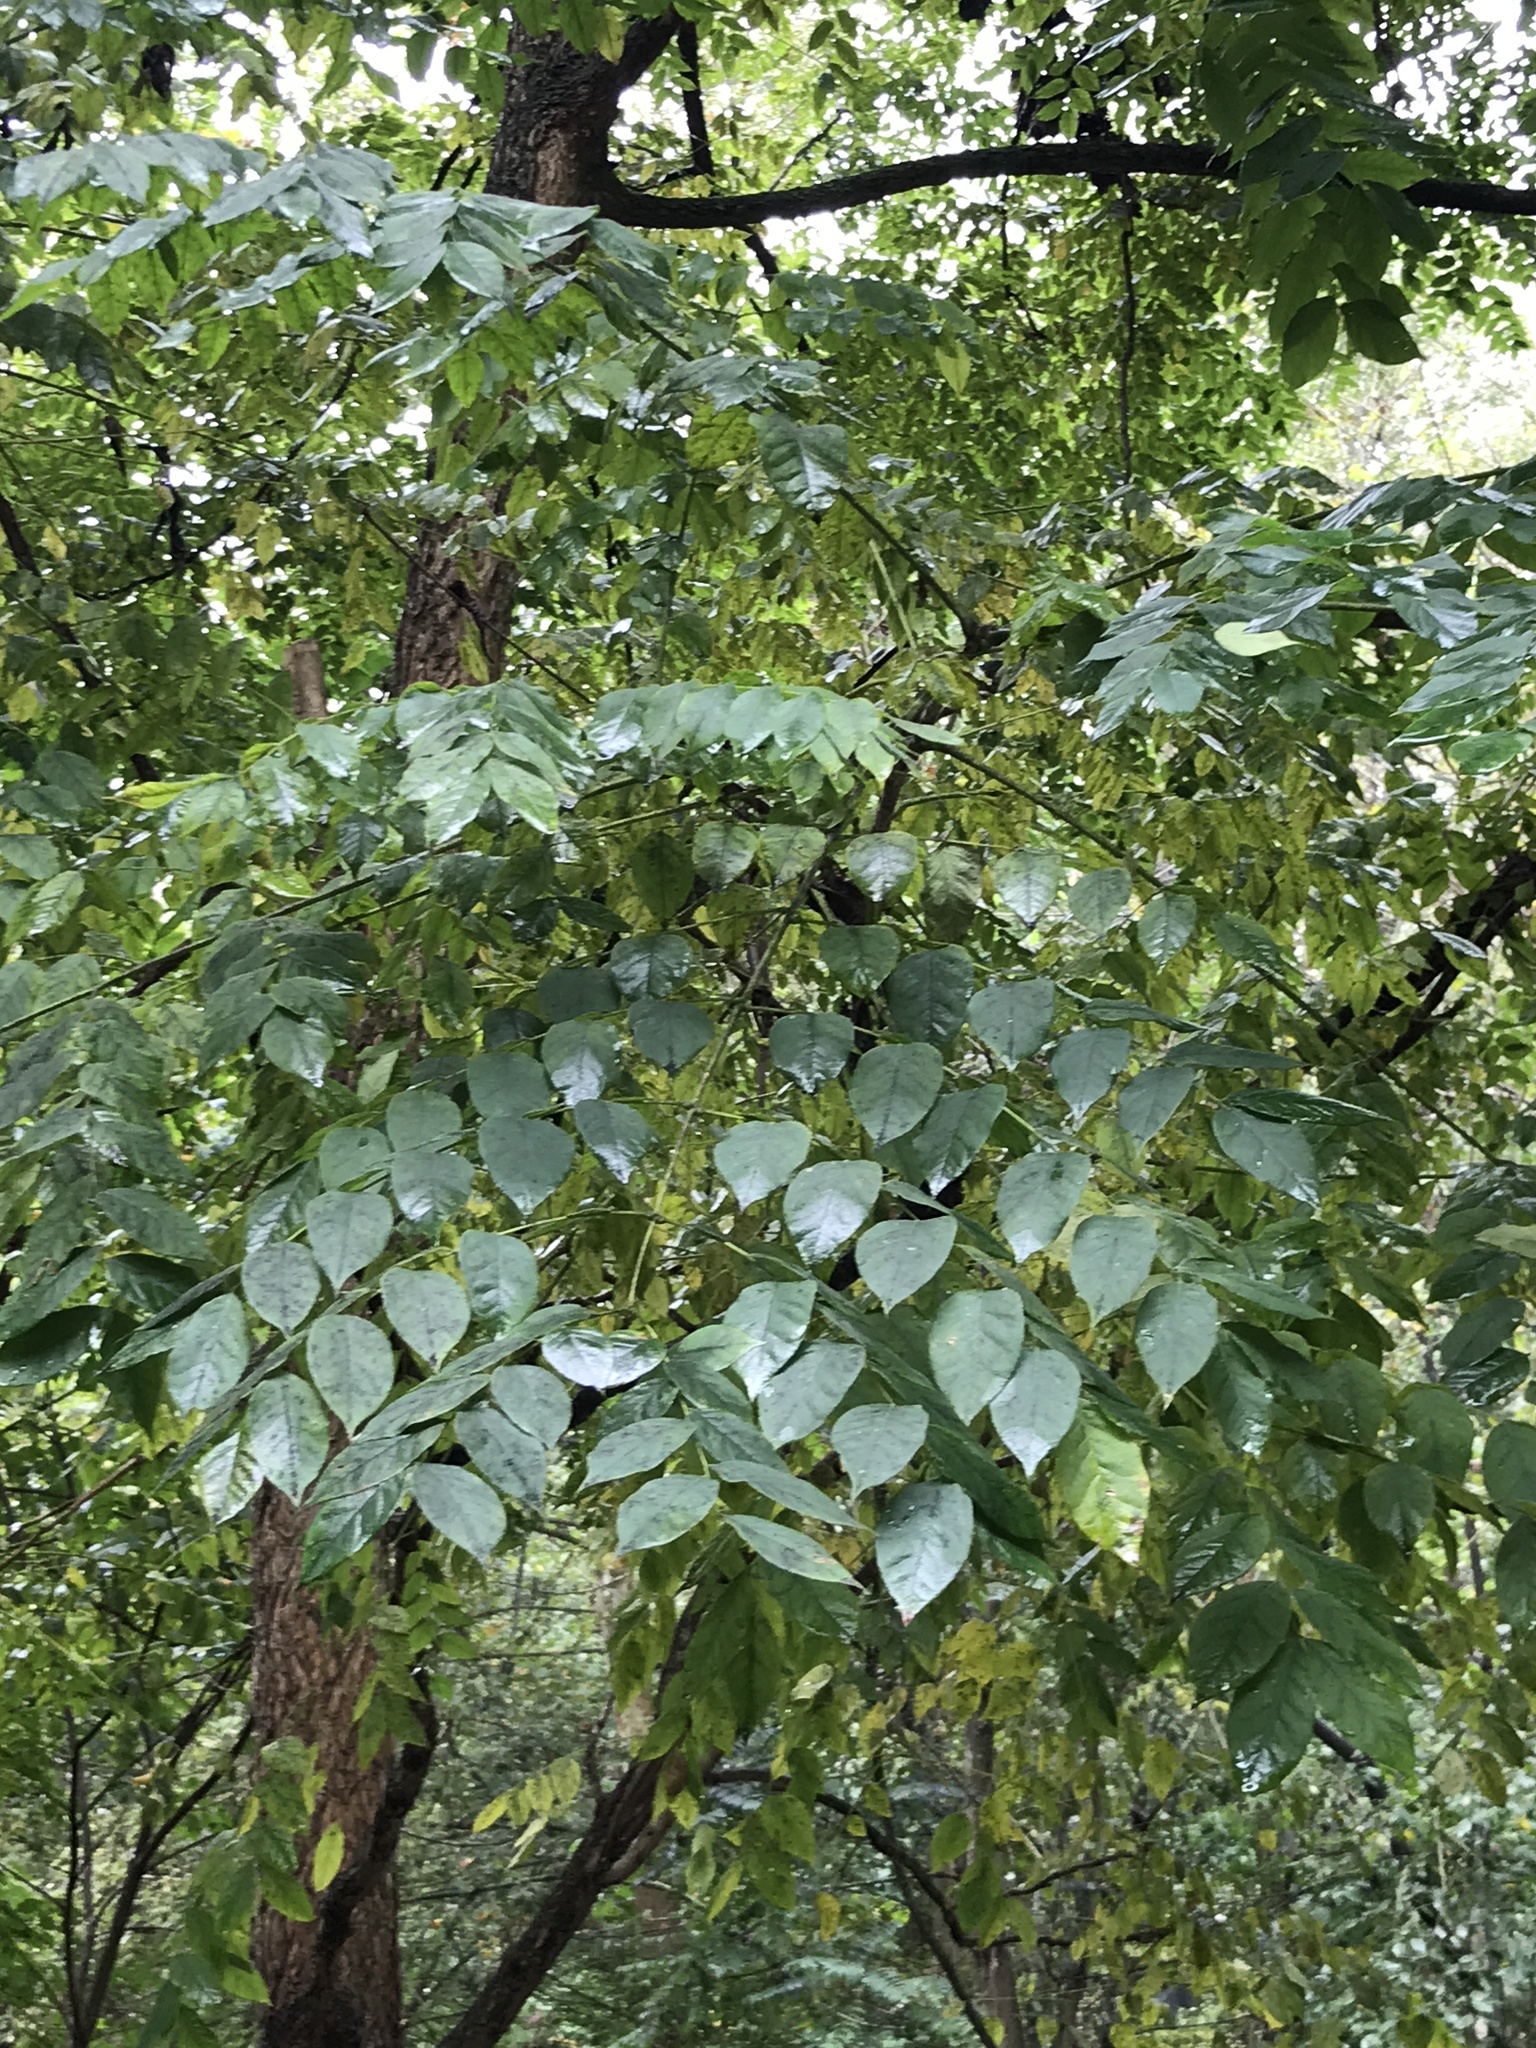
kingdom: Plantae
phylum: Tracheophyta
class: Magnoliopsida
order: Fabales
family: Fabaceae
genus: Gymnocladus
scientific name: Gymnocladus dioicus
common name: Kentucky coffee-tree
